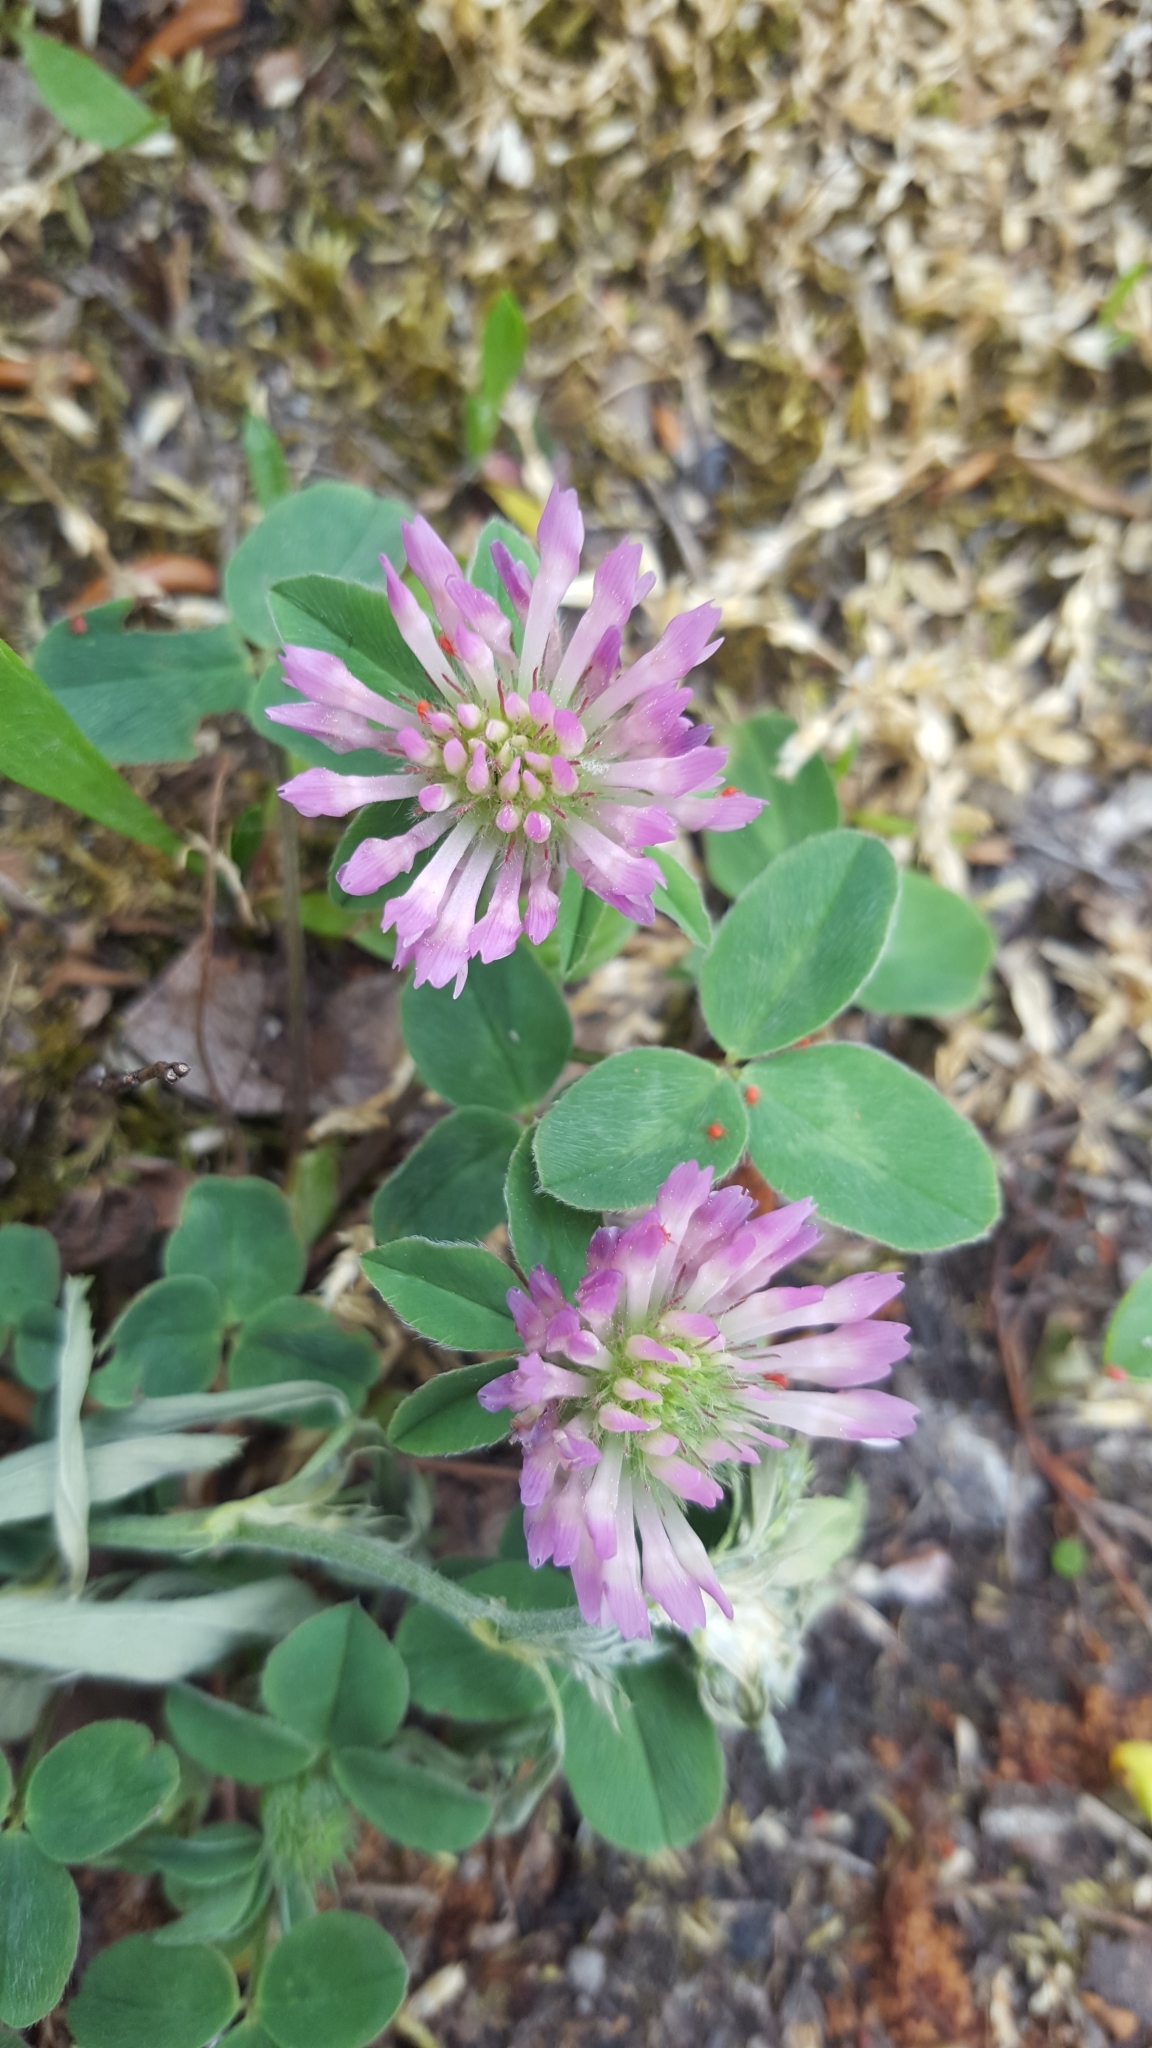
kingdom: Plantae
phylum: Tracheophyta
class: Magnoliopsida
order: Fabales
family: Fabaceae
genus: Trifolium
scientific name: Trifolium pratense
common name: Red clover
